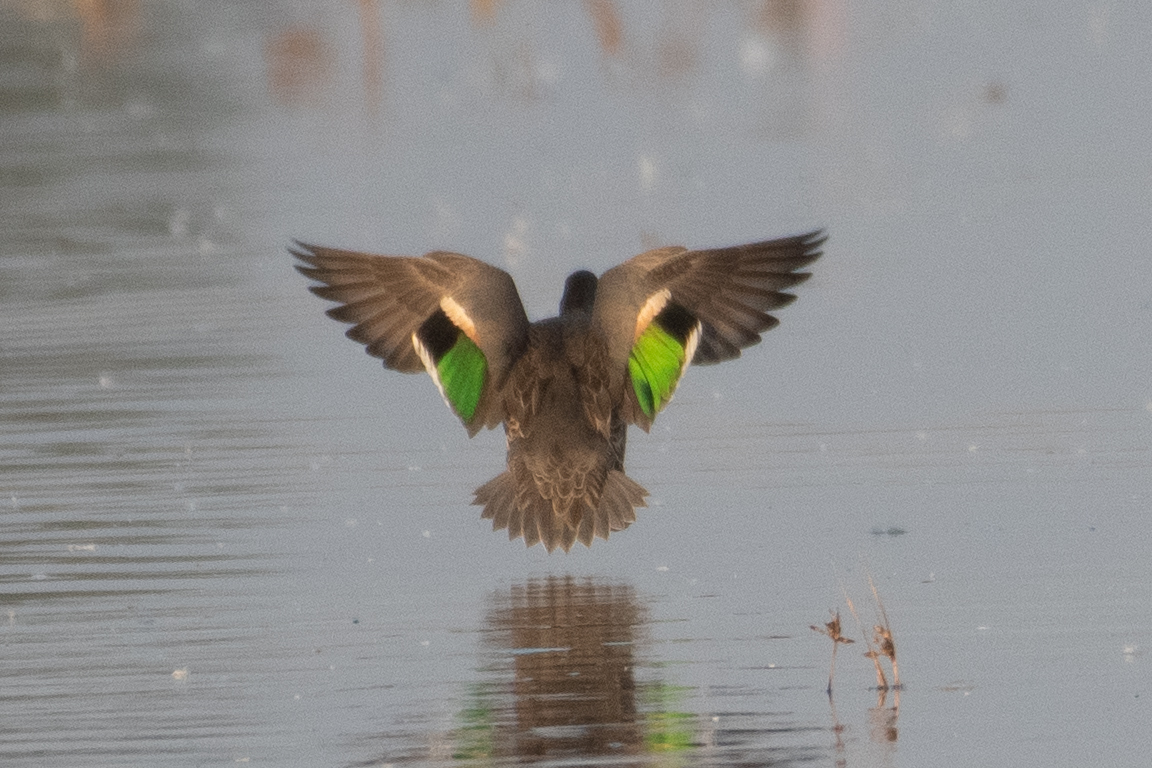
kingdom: Animalia
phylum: Chordata
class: Aves
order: Anseriformes
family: Anatidae
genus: Anas
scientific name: Anas crecca
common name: Eurasian teal
